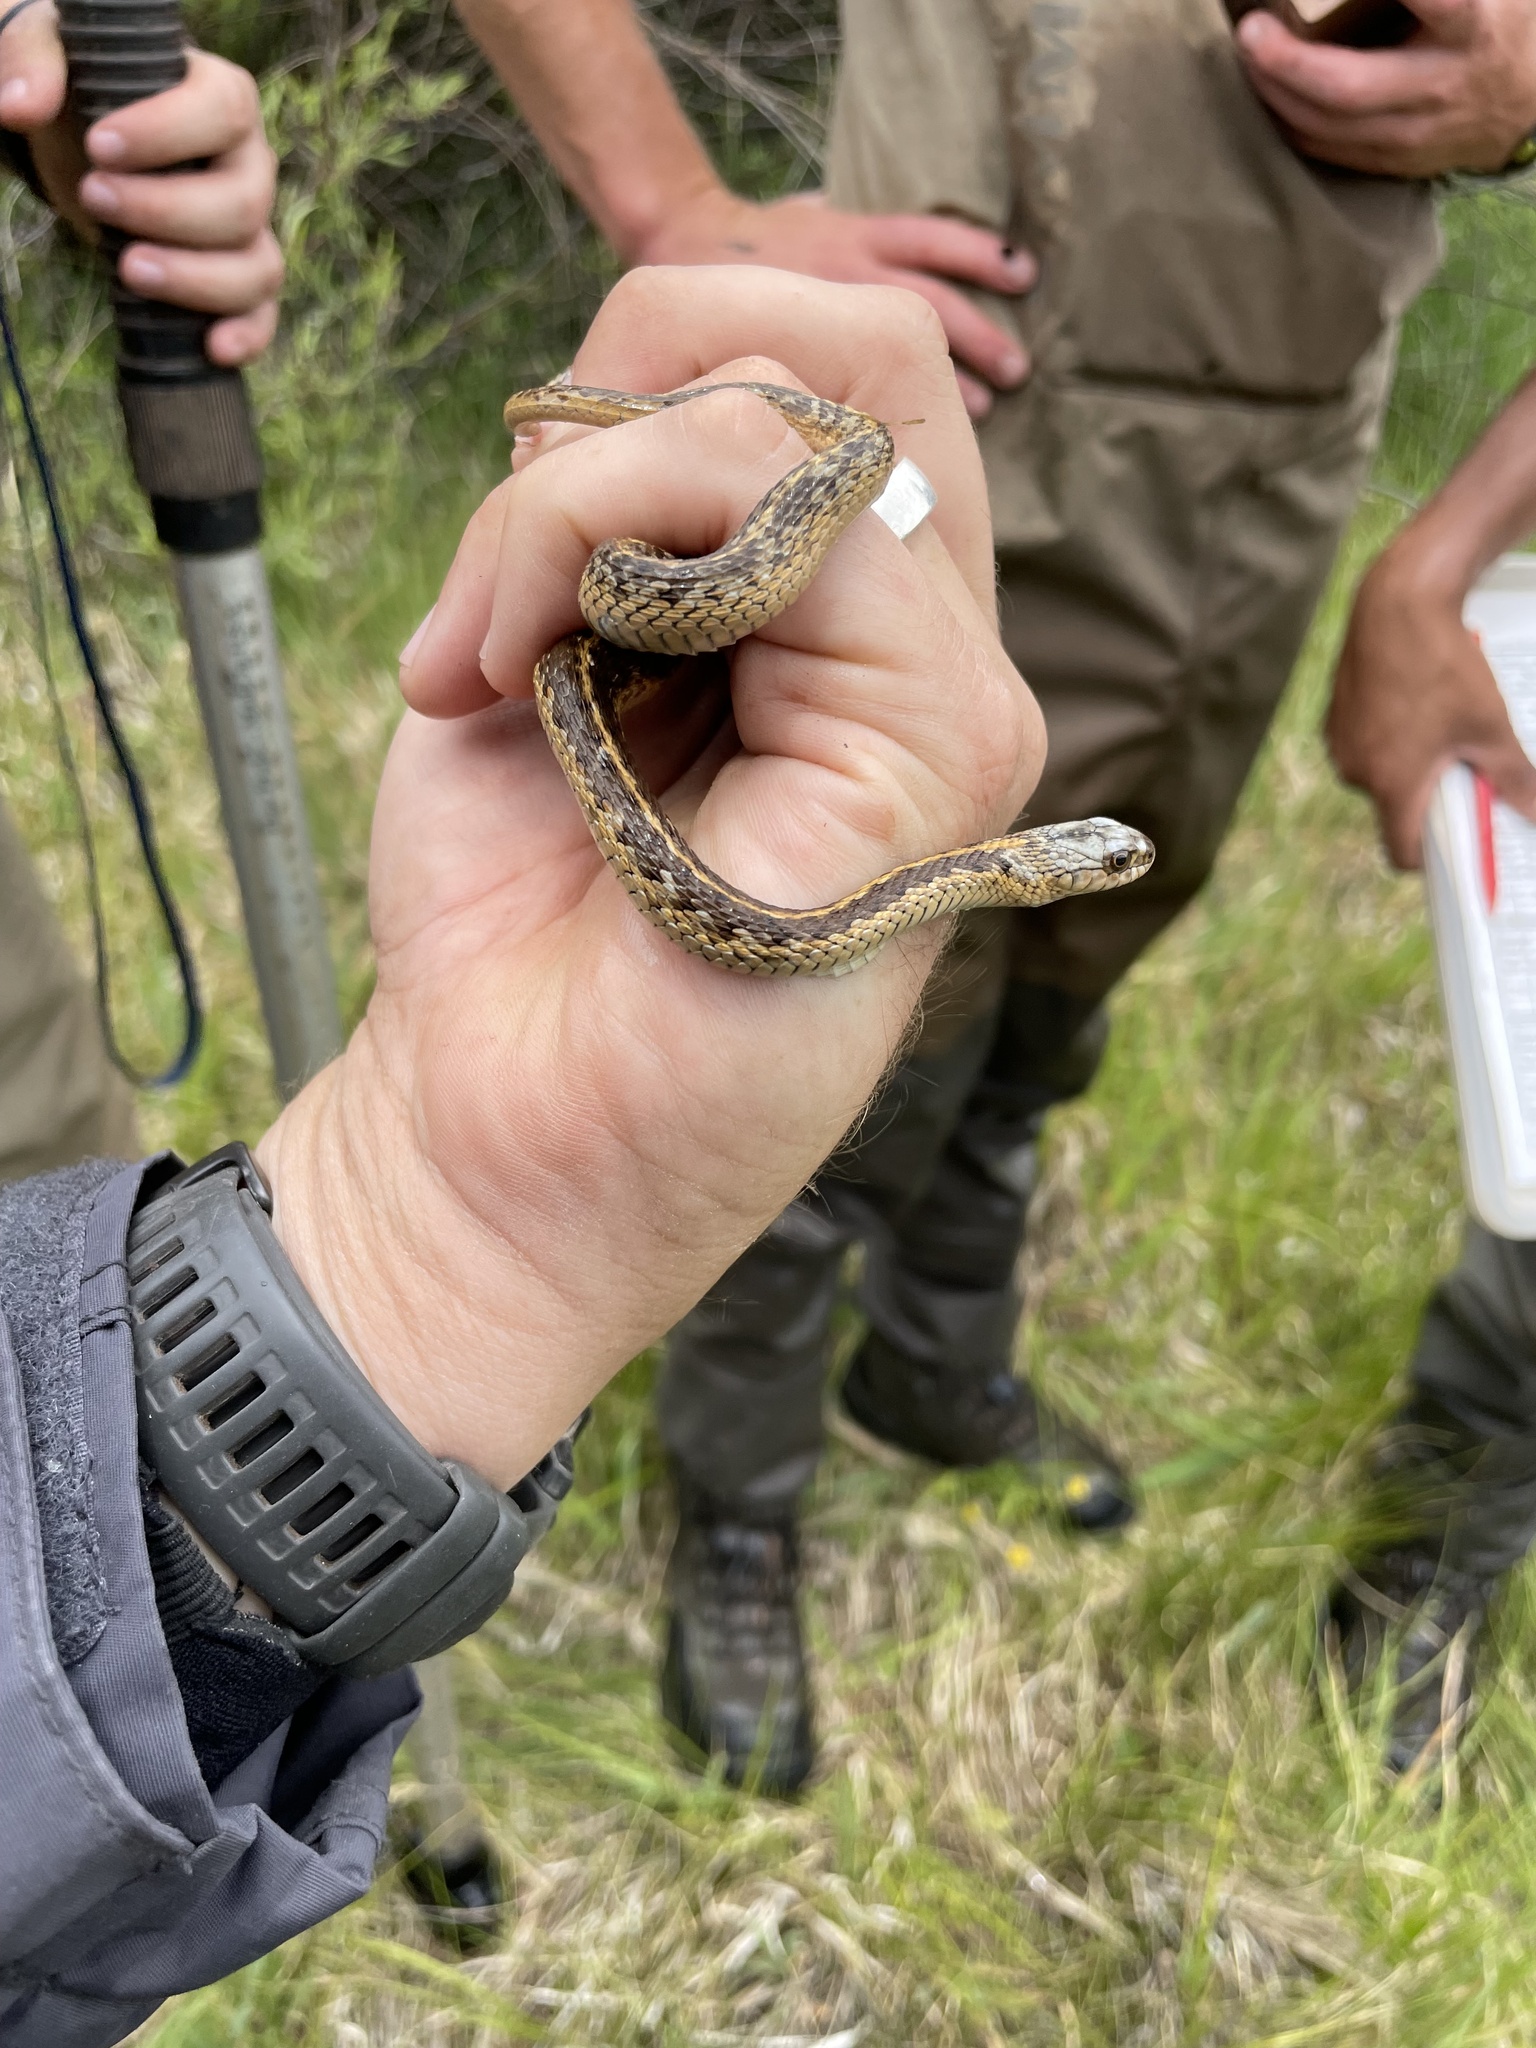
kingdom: Animalia
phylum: Chordata
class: Squamata
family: Colubridae
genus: Thamnophis
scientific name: Thamnophis elegans
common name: Western terrestrial garter snake
